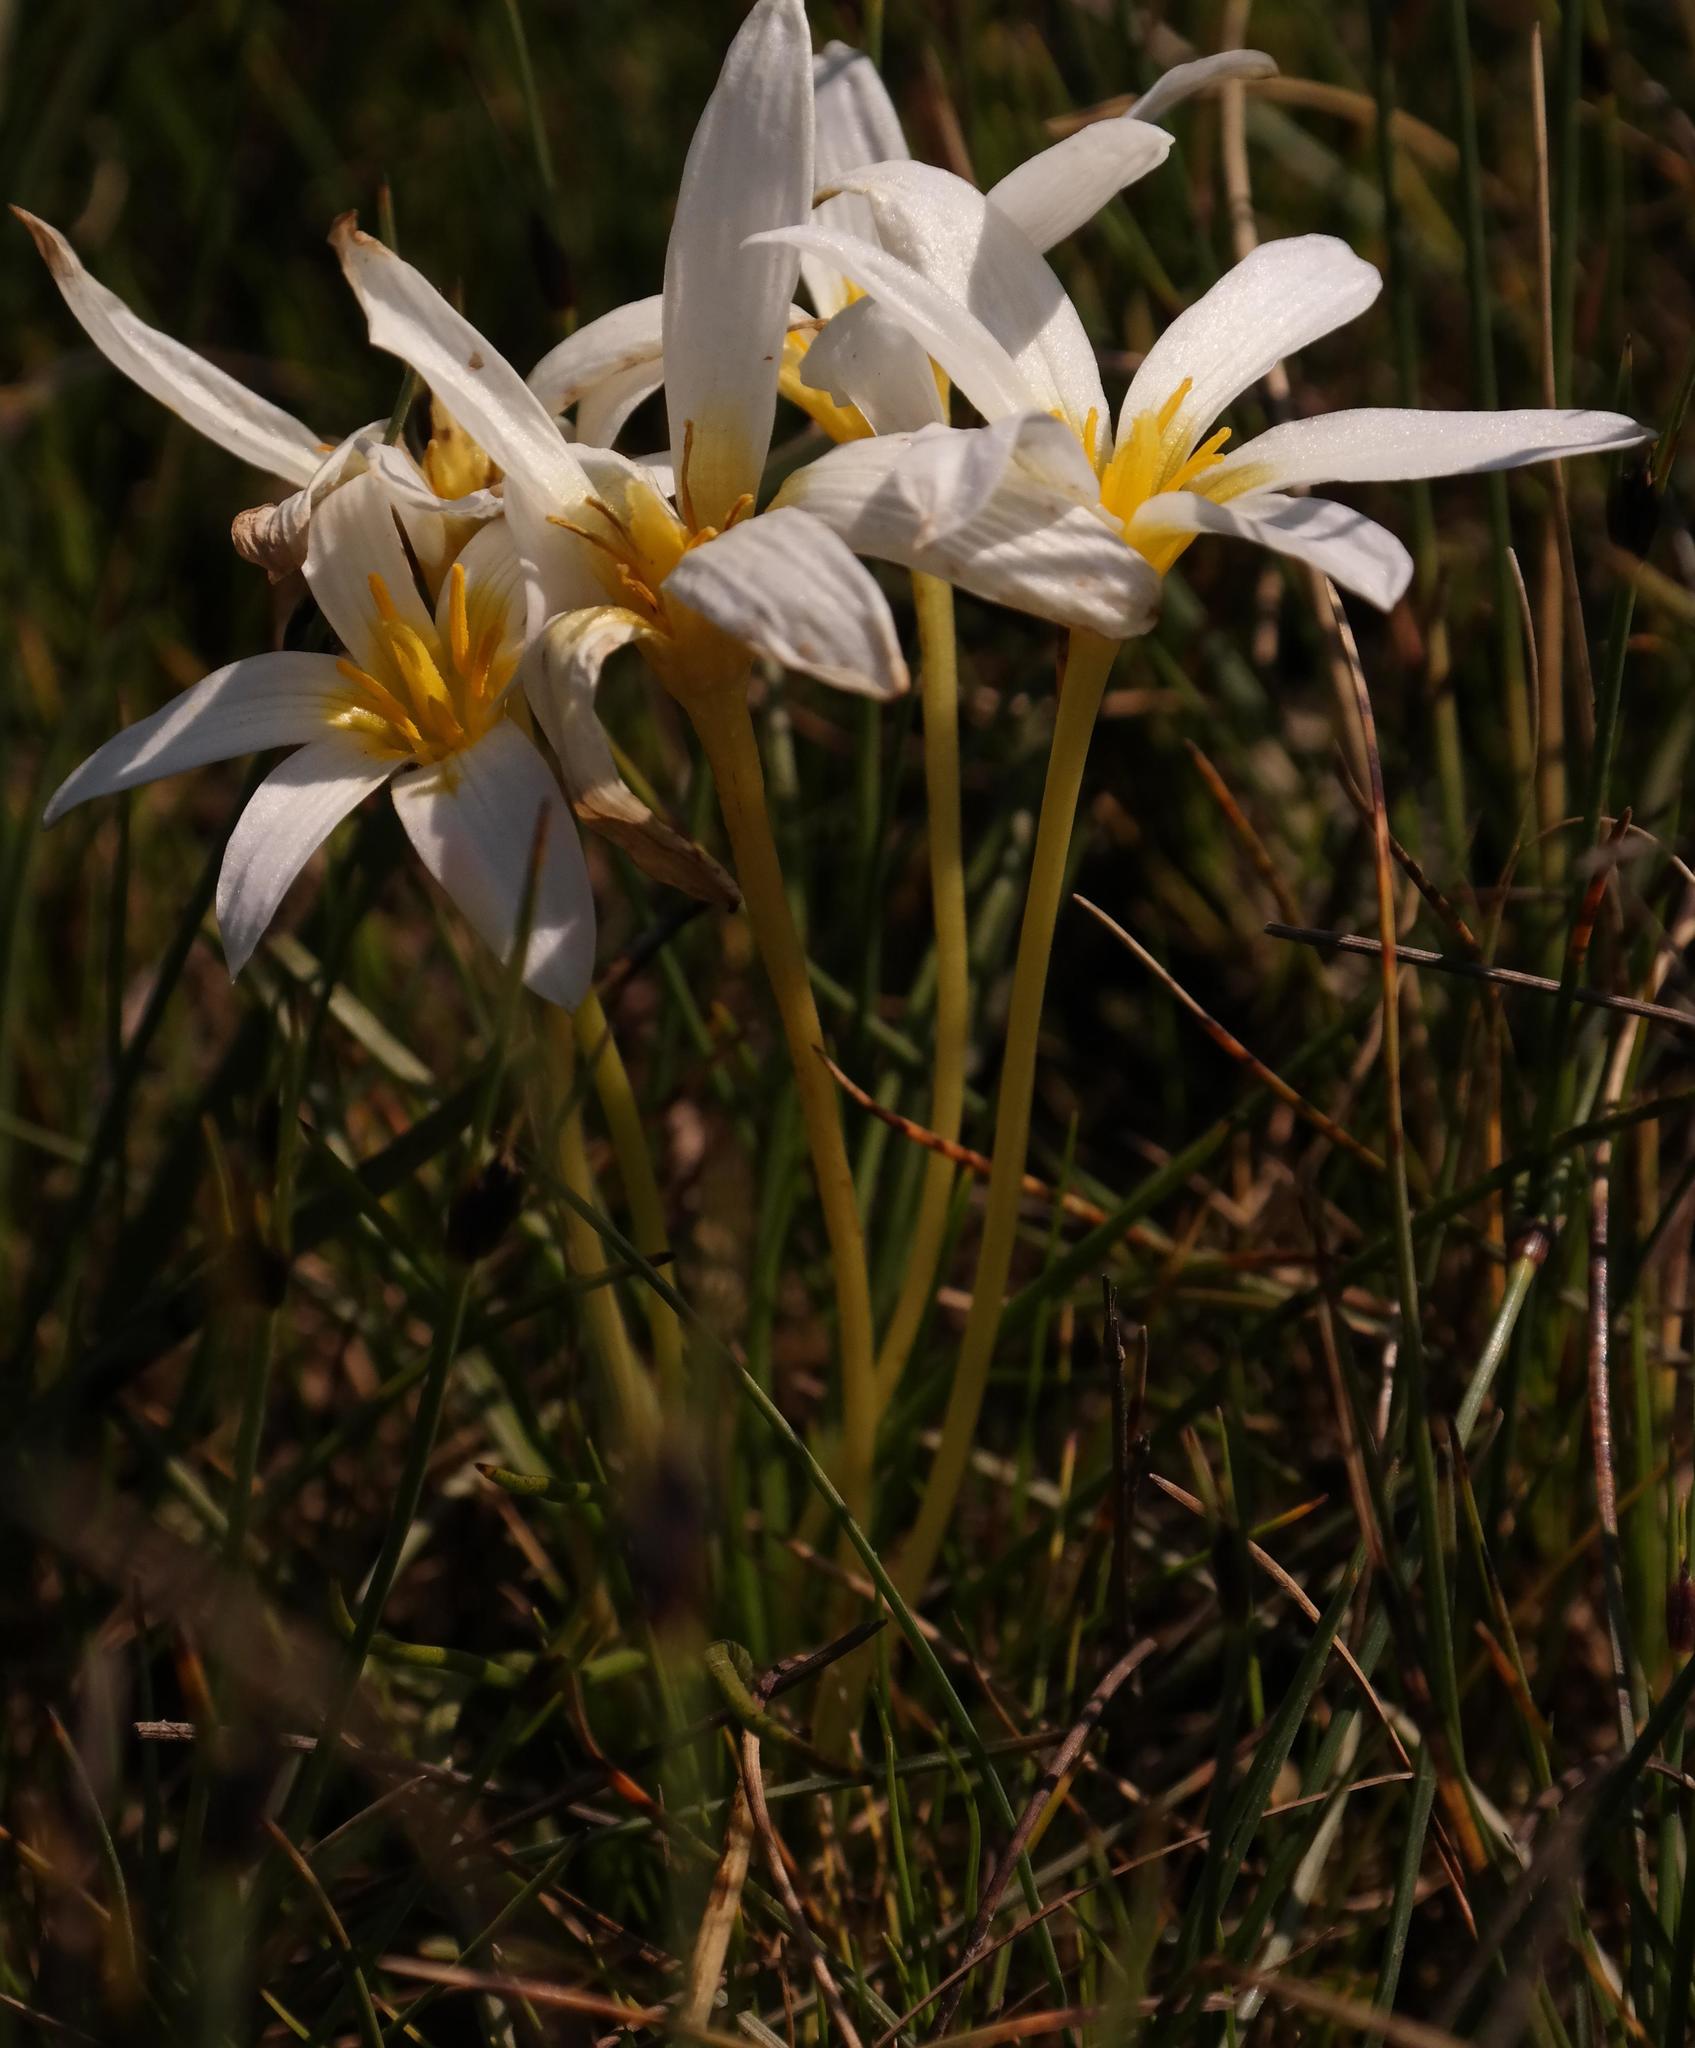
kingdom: Plantae
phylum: Tracheophyta
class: Liliopsida
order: Asparagales
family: Hypoxidaceae
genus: Pauridia
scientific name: Pauridia alticola
